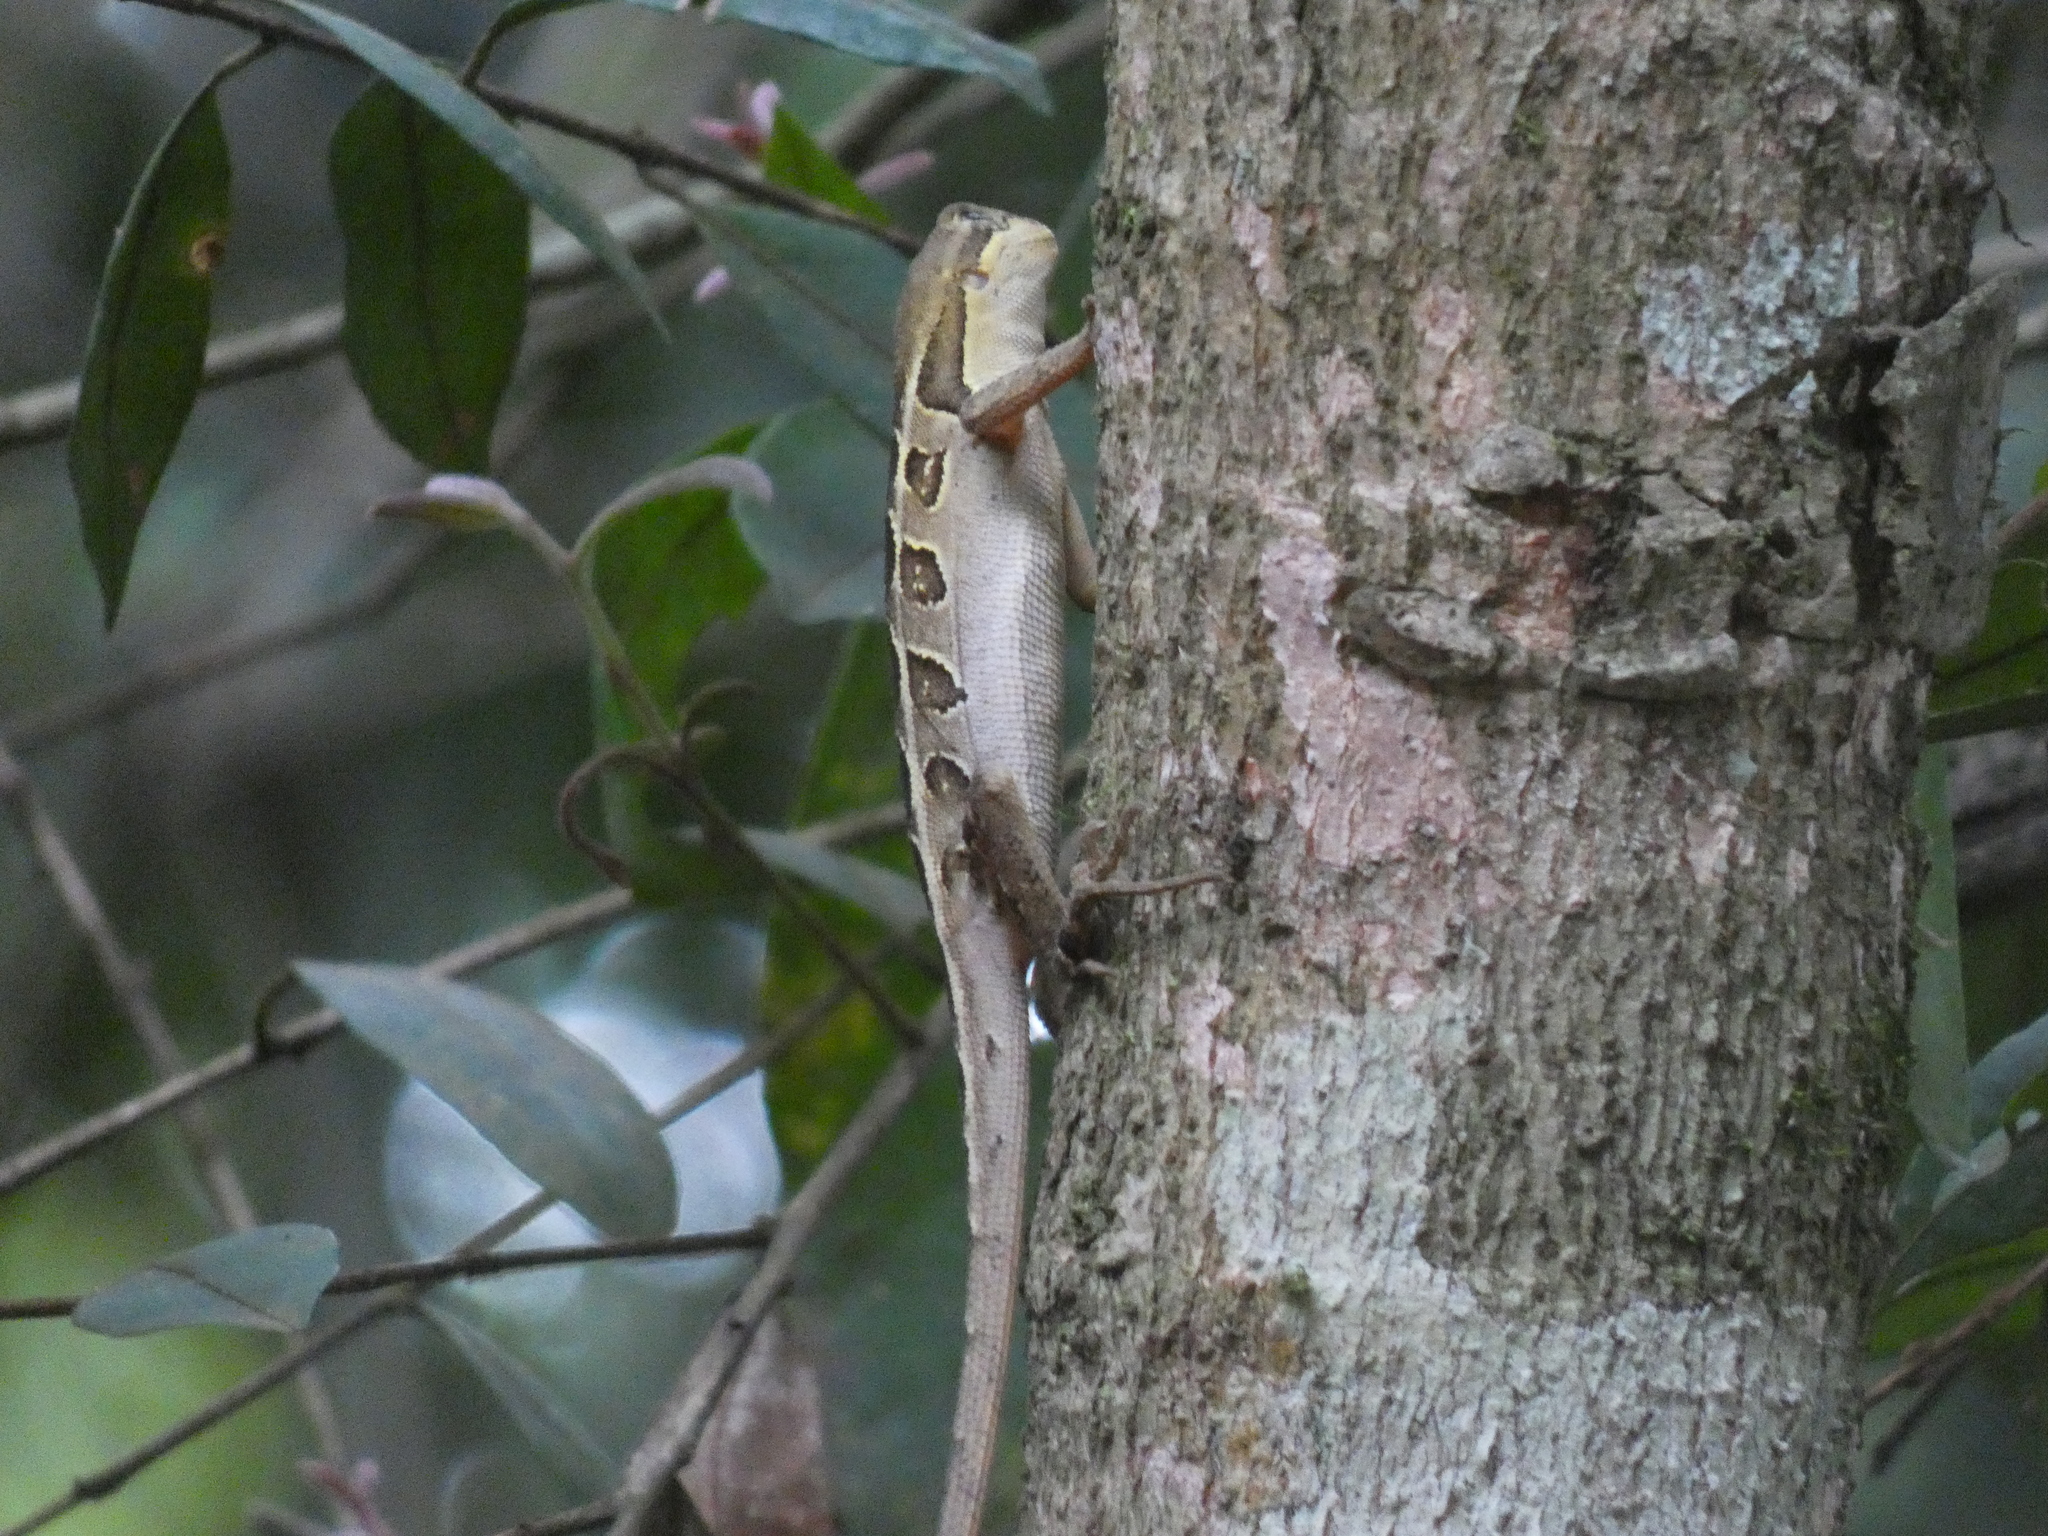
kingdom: Animalia
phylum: Chordata
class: Squamata
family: Leiosauridae
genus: Enyalius
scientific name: Enyalius bilineatus
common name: Two-lined fathead anole
